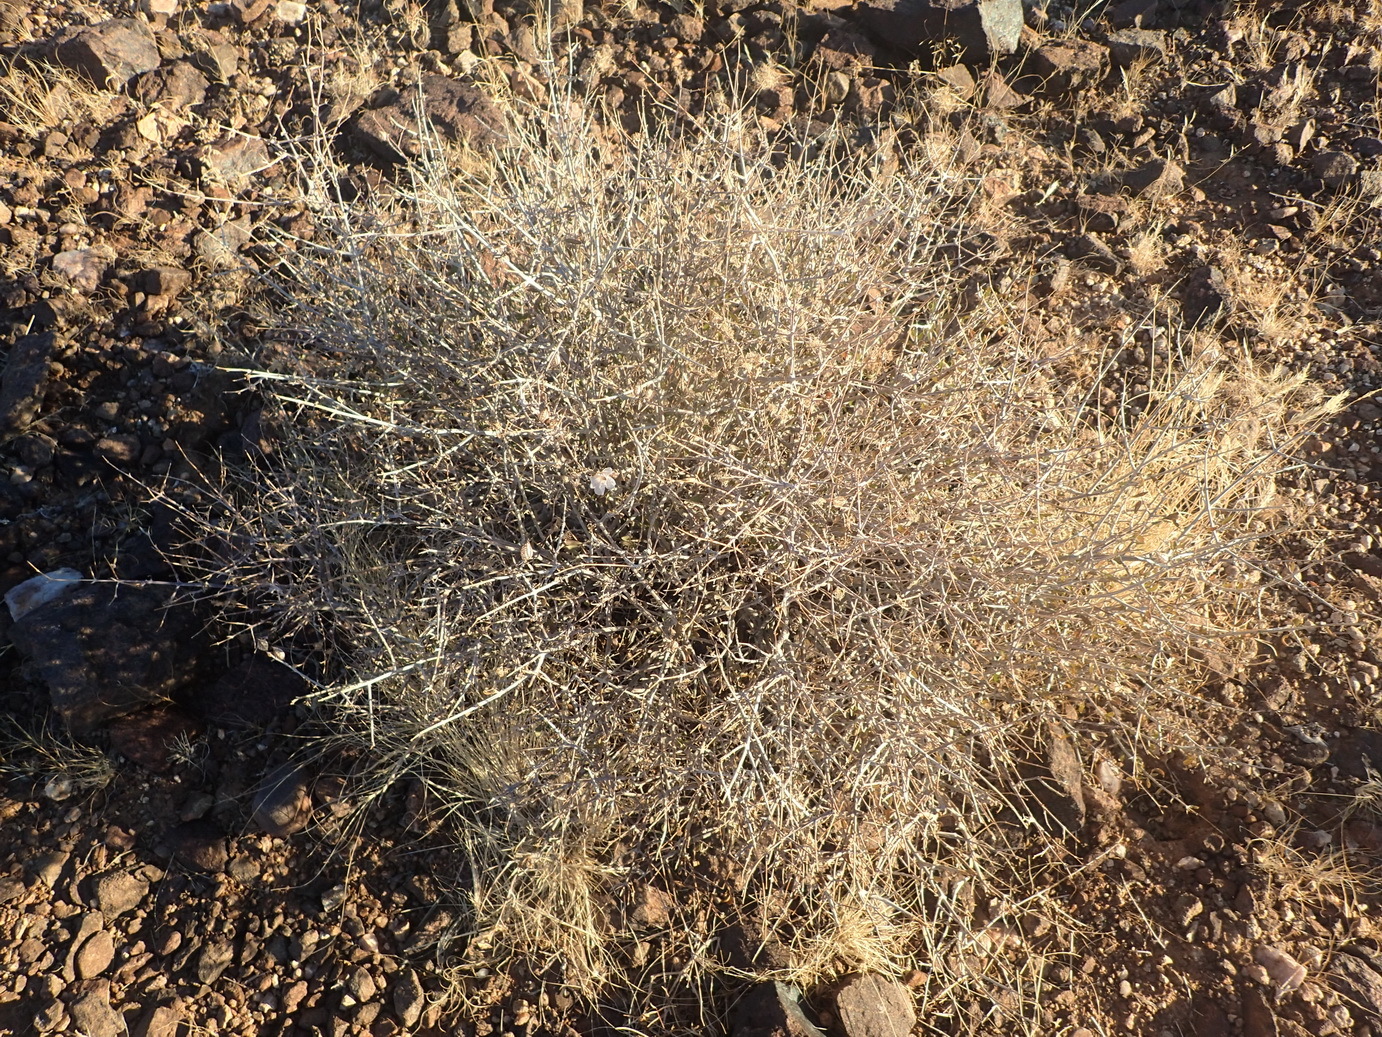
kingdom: Plantae
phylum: Tracheophyta
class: Magnoliopsida
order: Lamiales
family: Acanthaceae
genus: Petalidium
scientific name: Petalidium lucens
